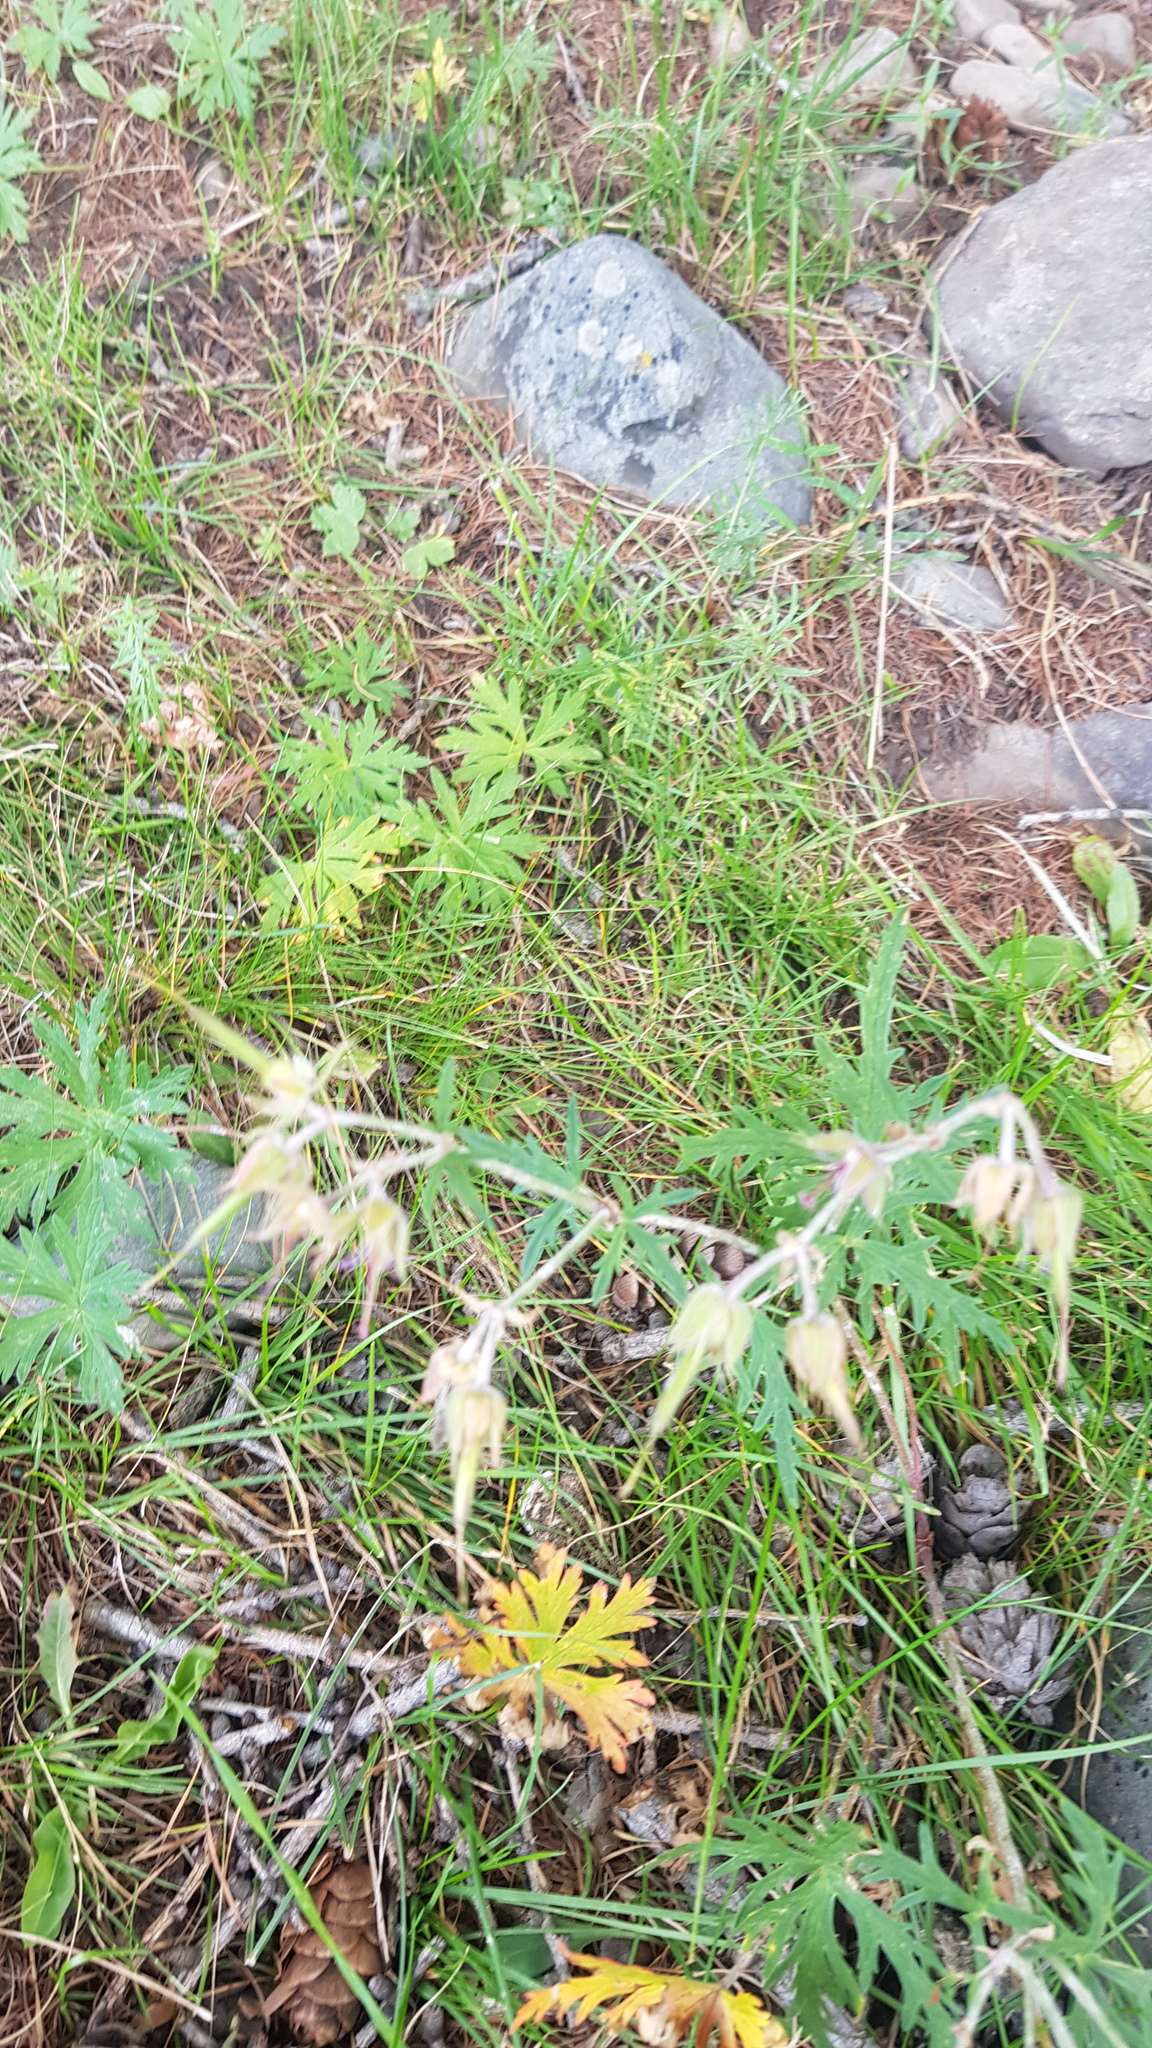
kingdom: Plantae
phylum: Tracheophyta
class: Magnoliopsida
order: Geraniales
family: Geraniaceae
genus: Geranium
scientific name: Geranium pratense
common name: Meadow crane's-bill
